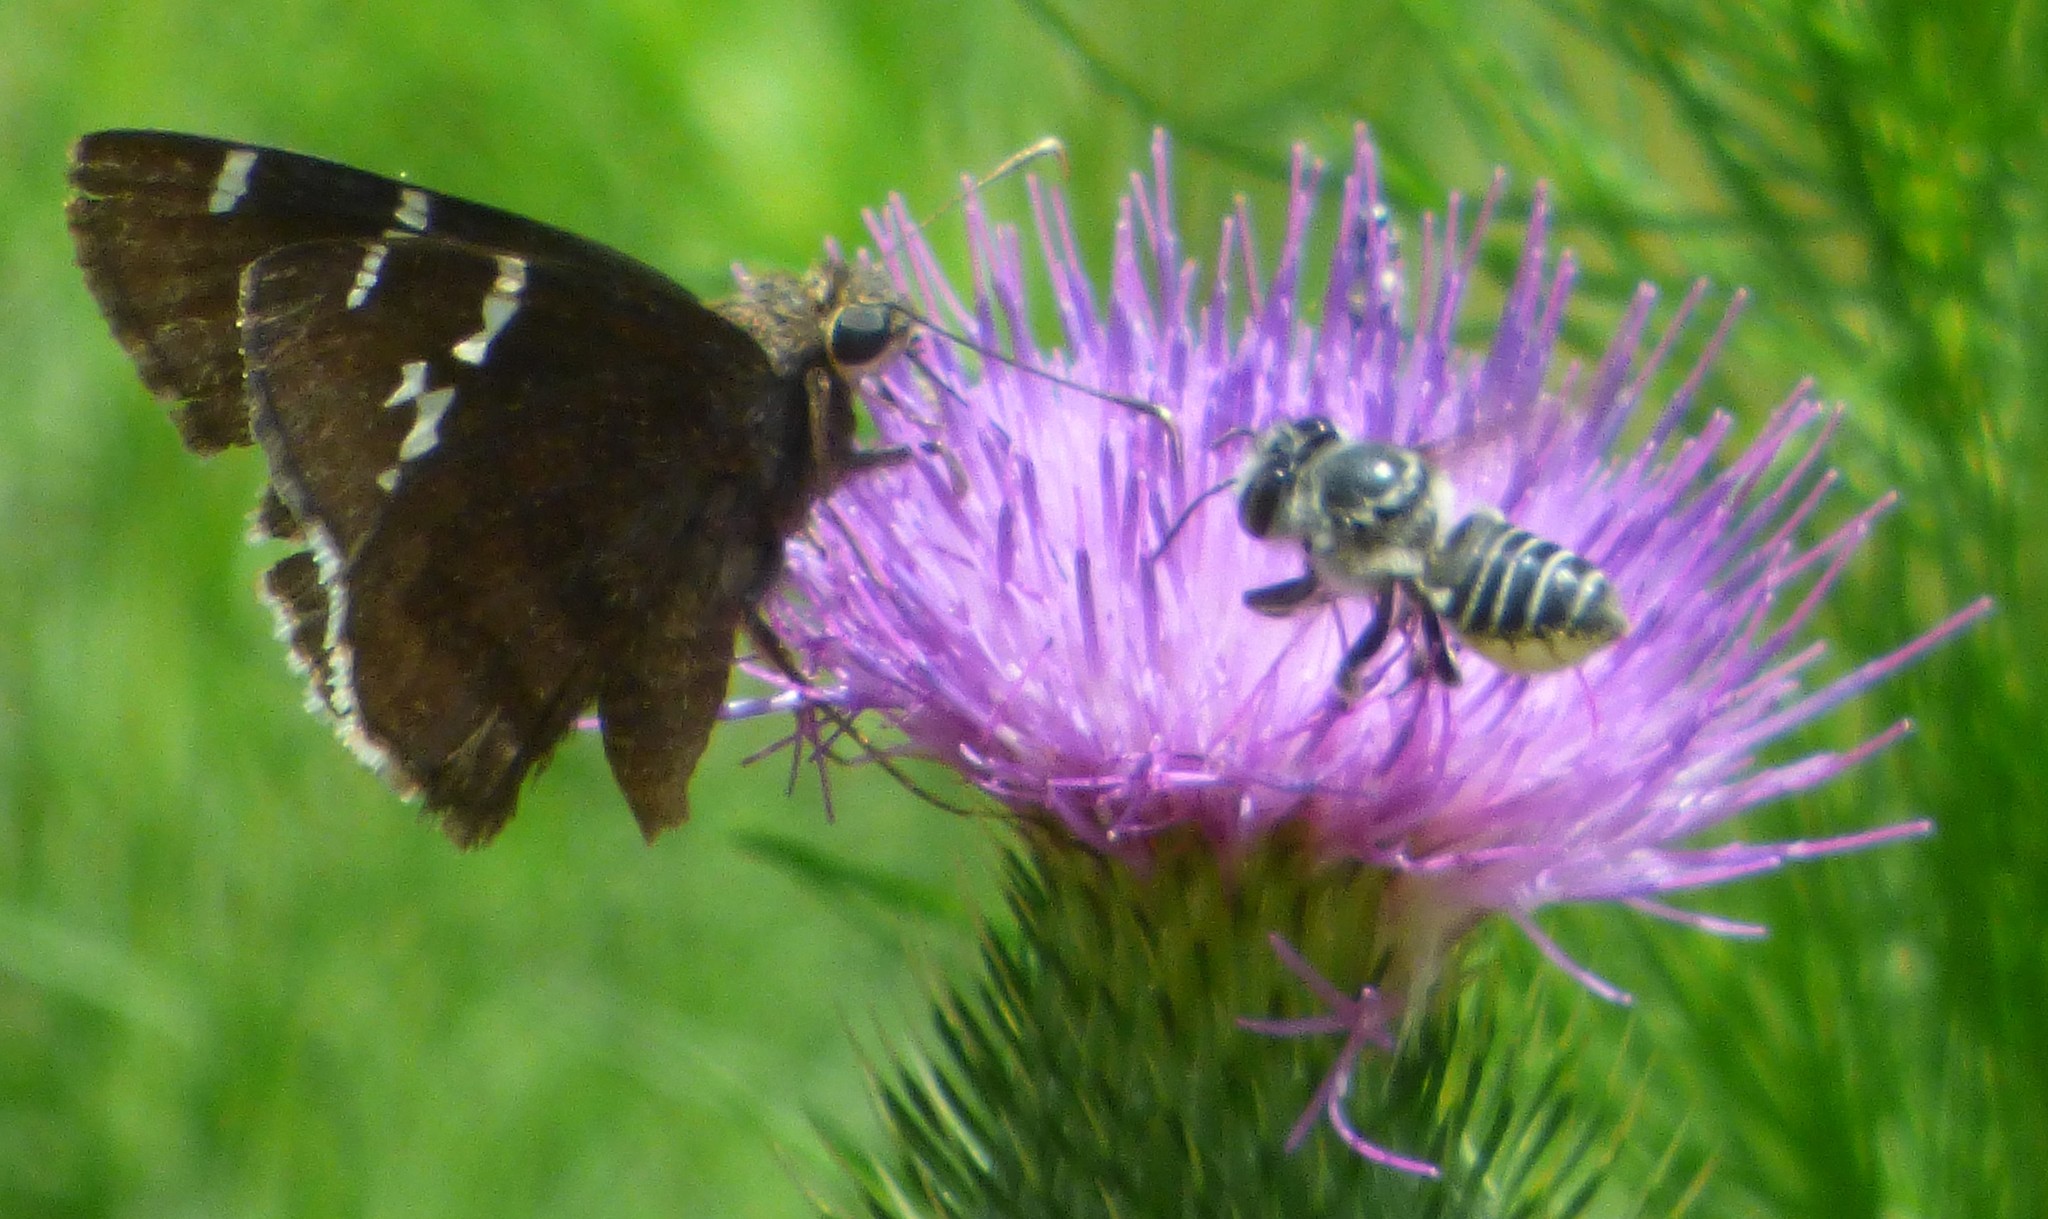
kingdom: Animalia
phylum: Arthropoda
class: Insecta
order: Lepidoptera
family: Hesperiidae
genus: Thorybes
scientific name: Thorybes daunus
